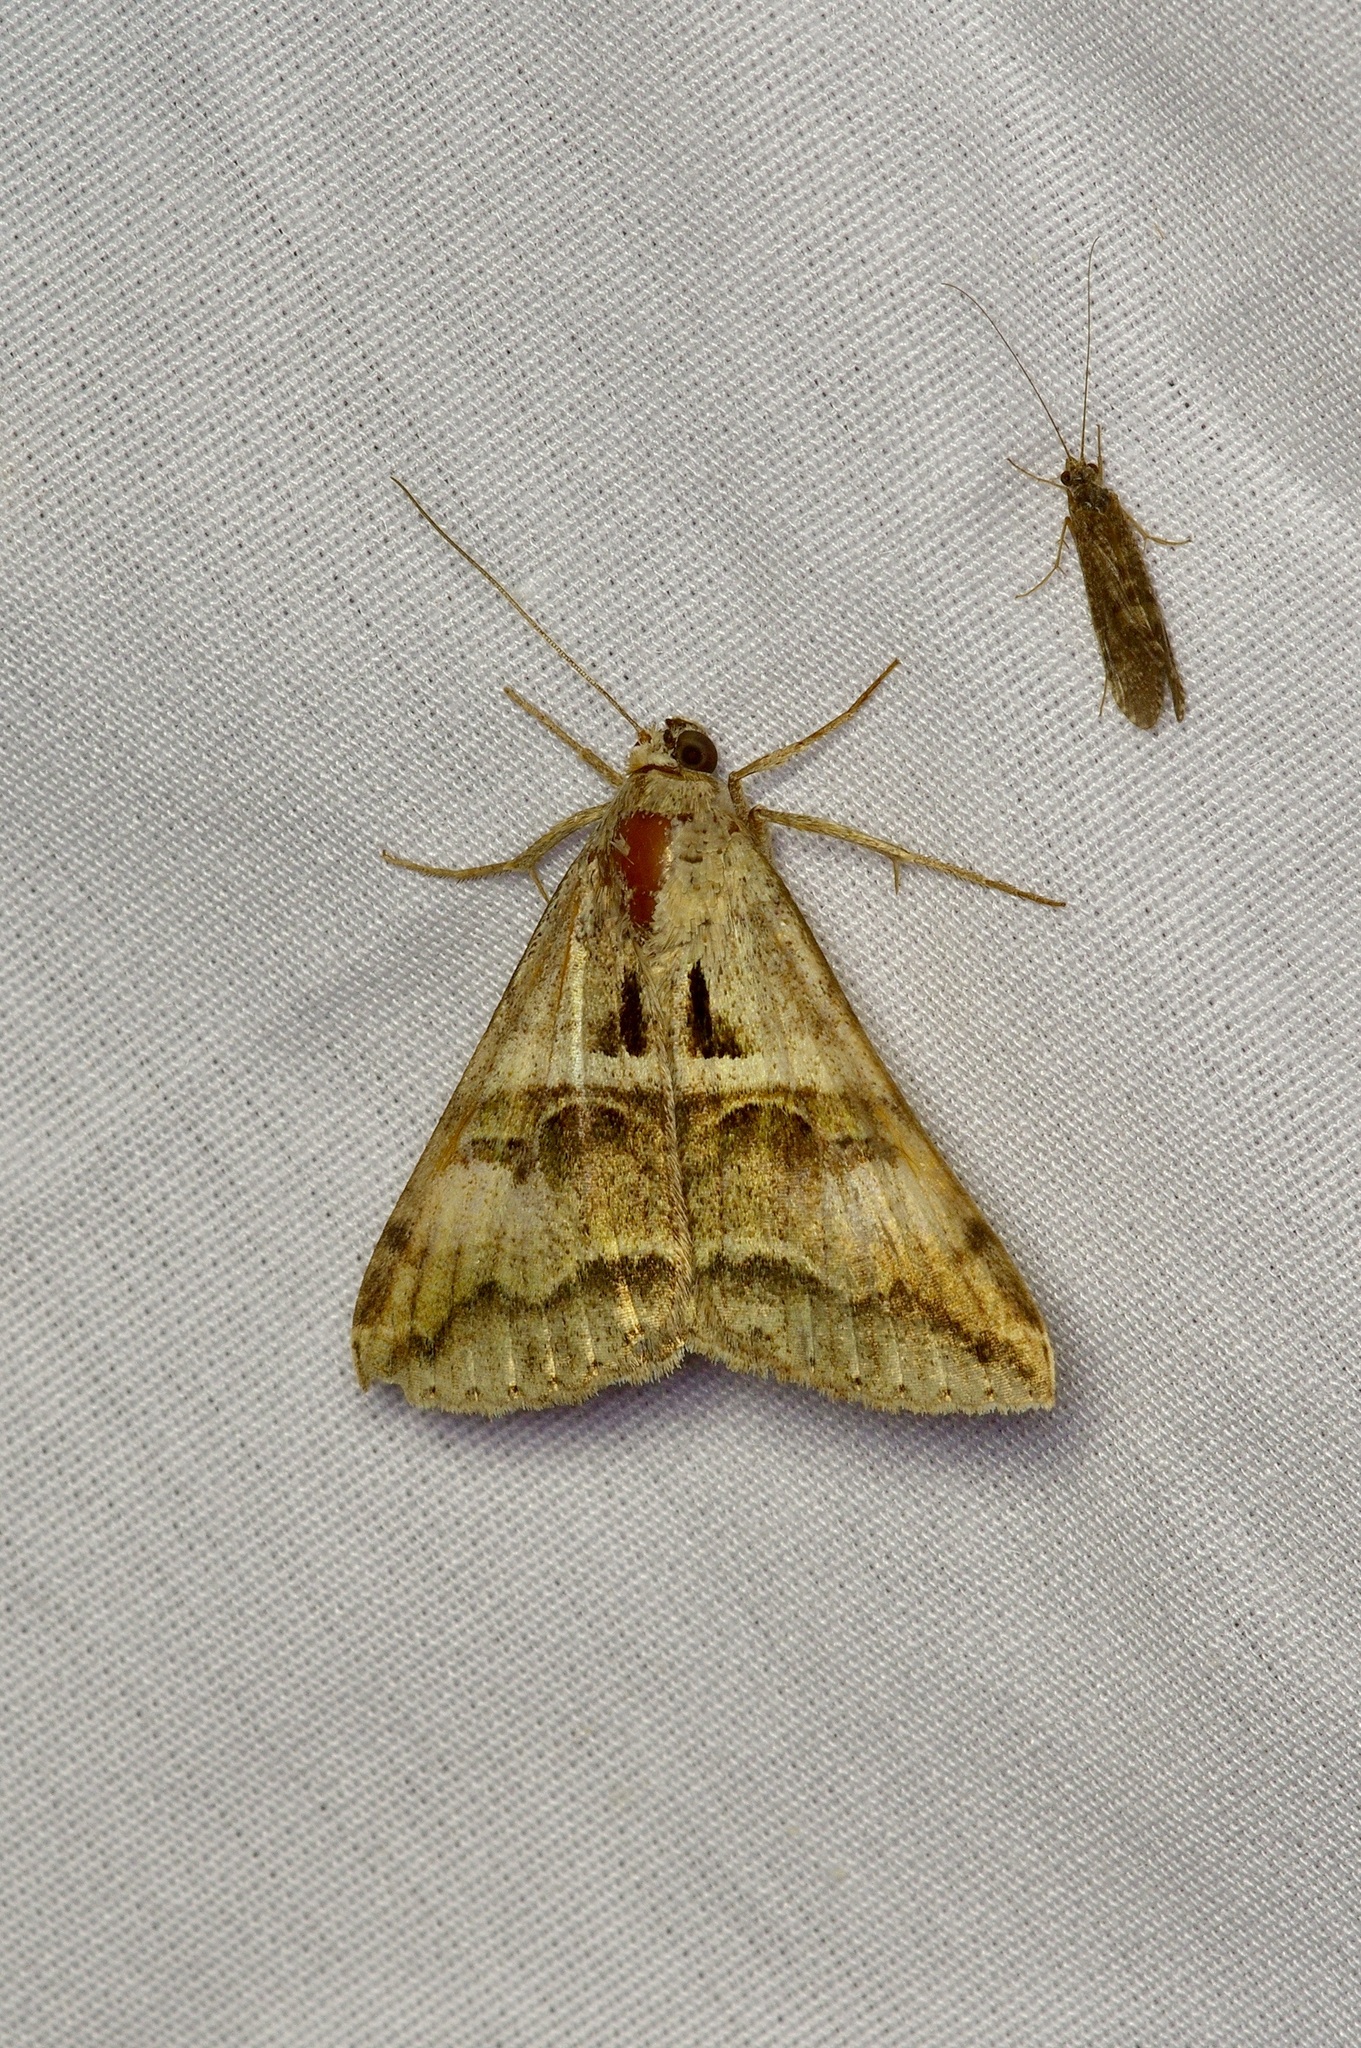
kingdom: Animalia
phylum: Arthropoda
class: Insecta
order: Lepidoptera
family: Erebidae
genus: Melipotis
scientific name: Melipotis cellaris
